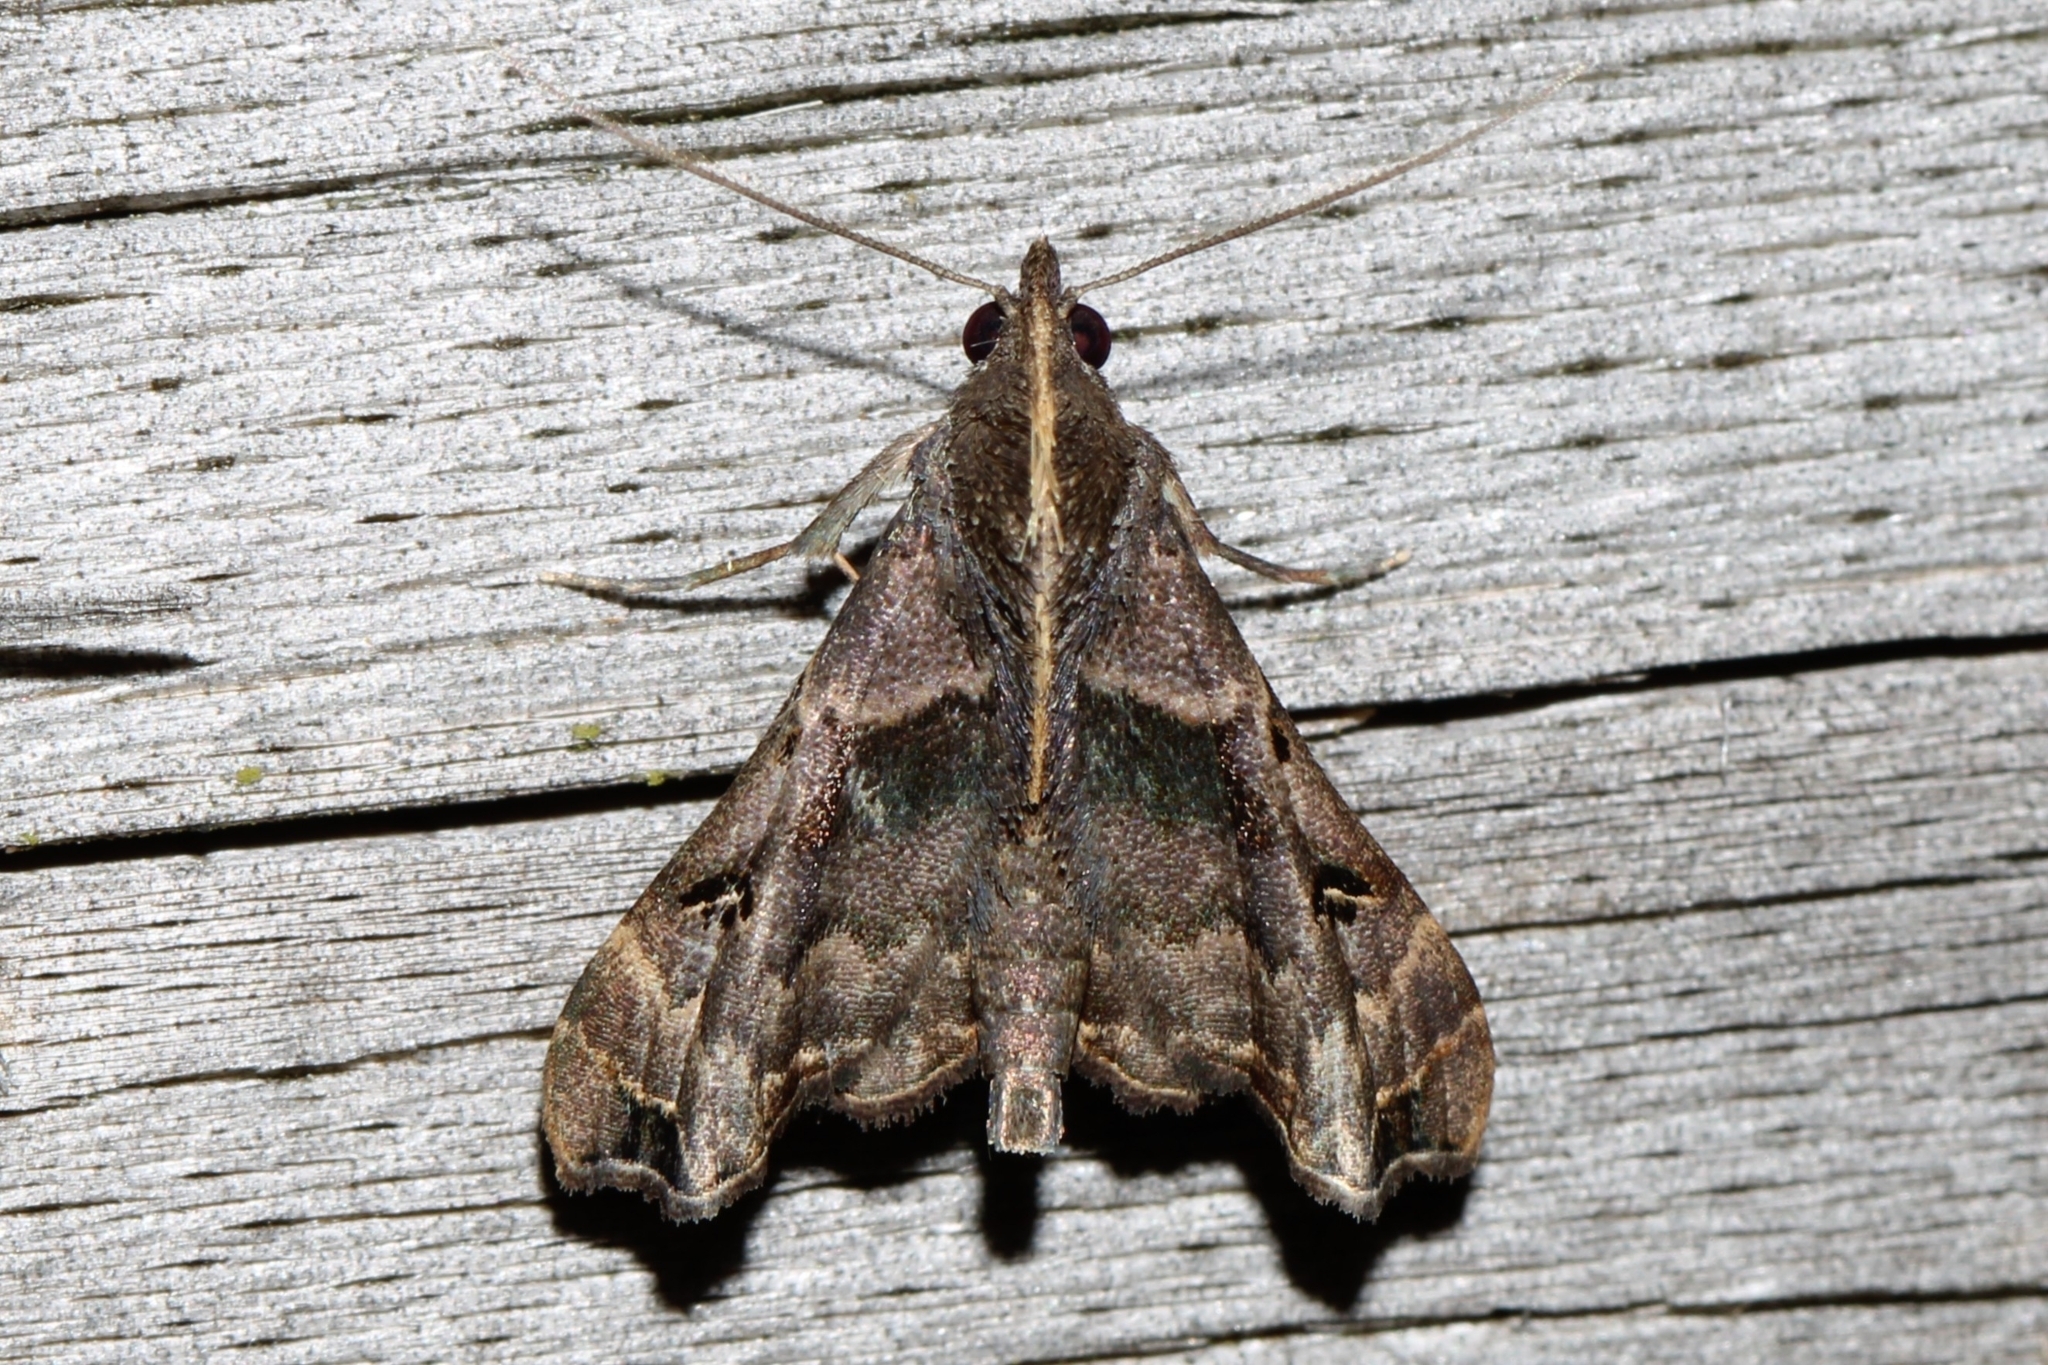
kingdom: Animalia
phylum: Arthropoda
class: Insecta
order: Lepidoptera
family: Erebidae
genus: Palthis
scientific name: Palthis asopialis
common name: Faint-spotted palthis moth
